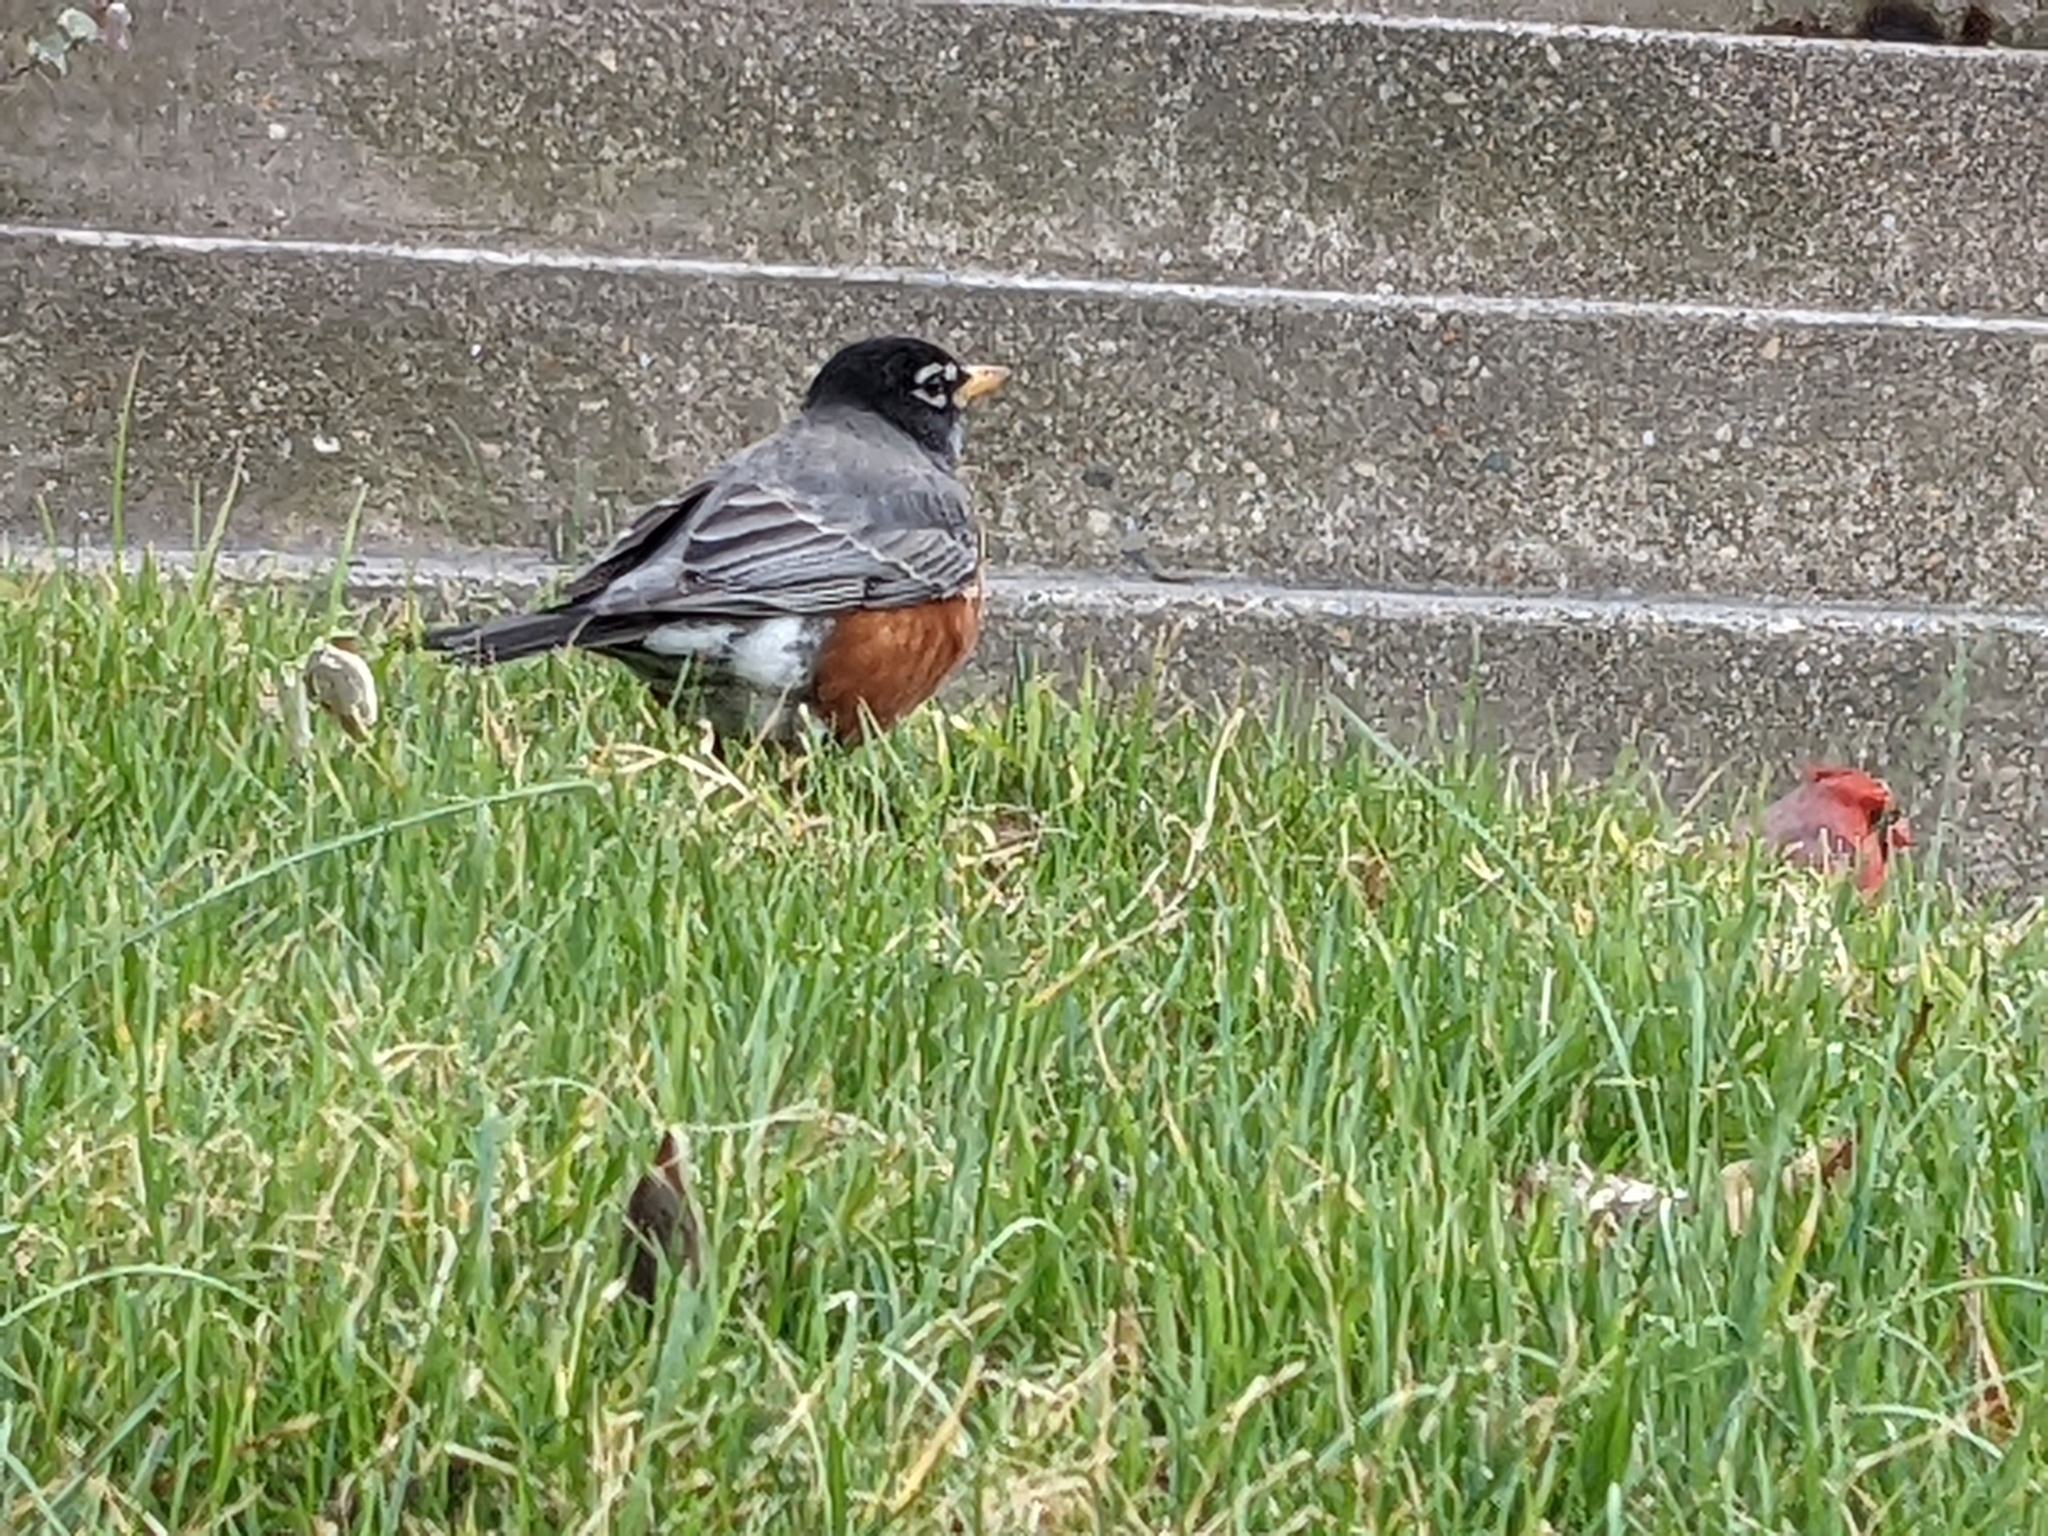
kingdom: Animalia
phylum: Chordata
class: Aves
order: Passeriformes
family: Turdidae
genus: Turdus
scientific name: Turdus migratorius
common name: American robin
